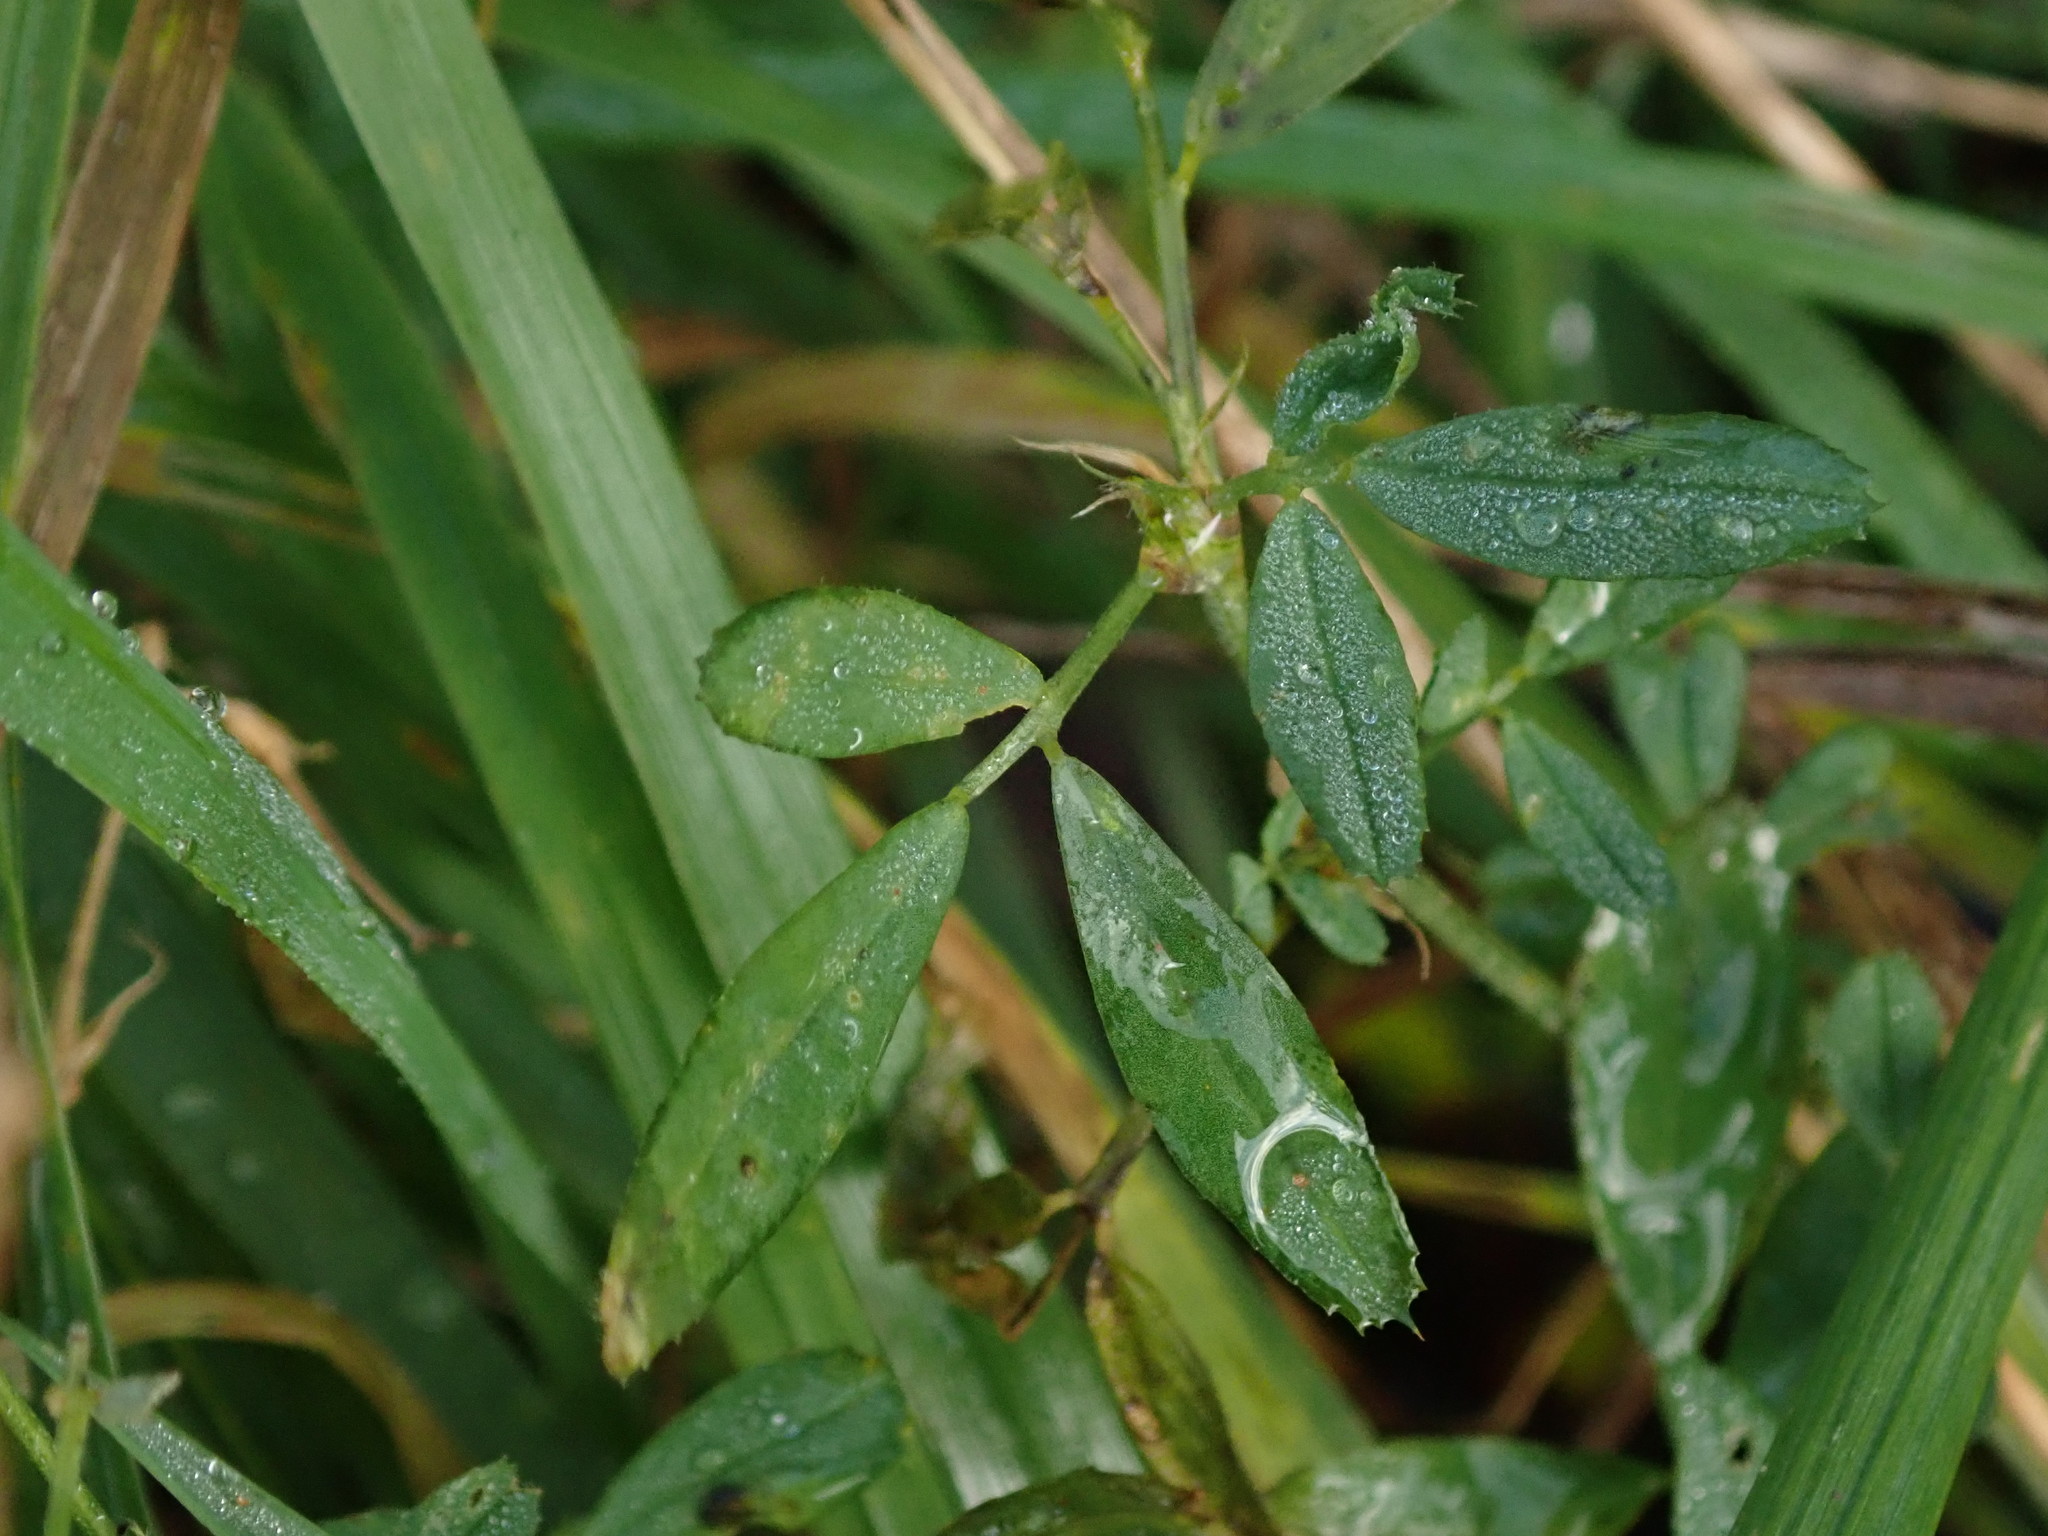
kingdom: Plantae
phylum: Tracheophyta
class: Magnoliopsida
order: Fabales
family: Fabaceae
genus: Medicago
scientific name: Medicago sativa
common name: Alfalfa
